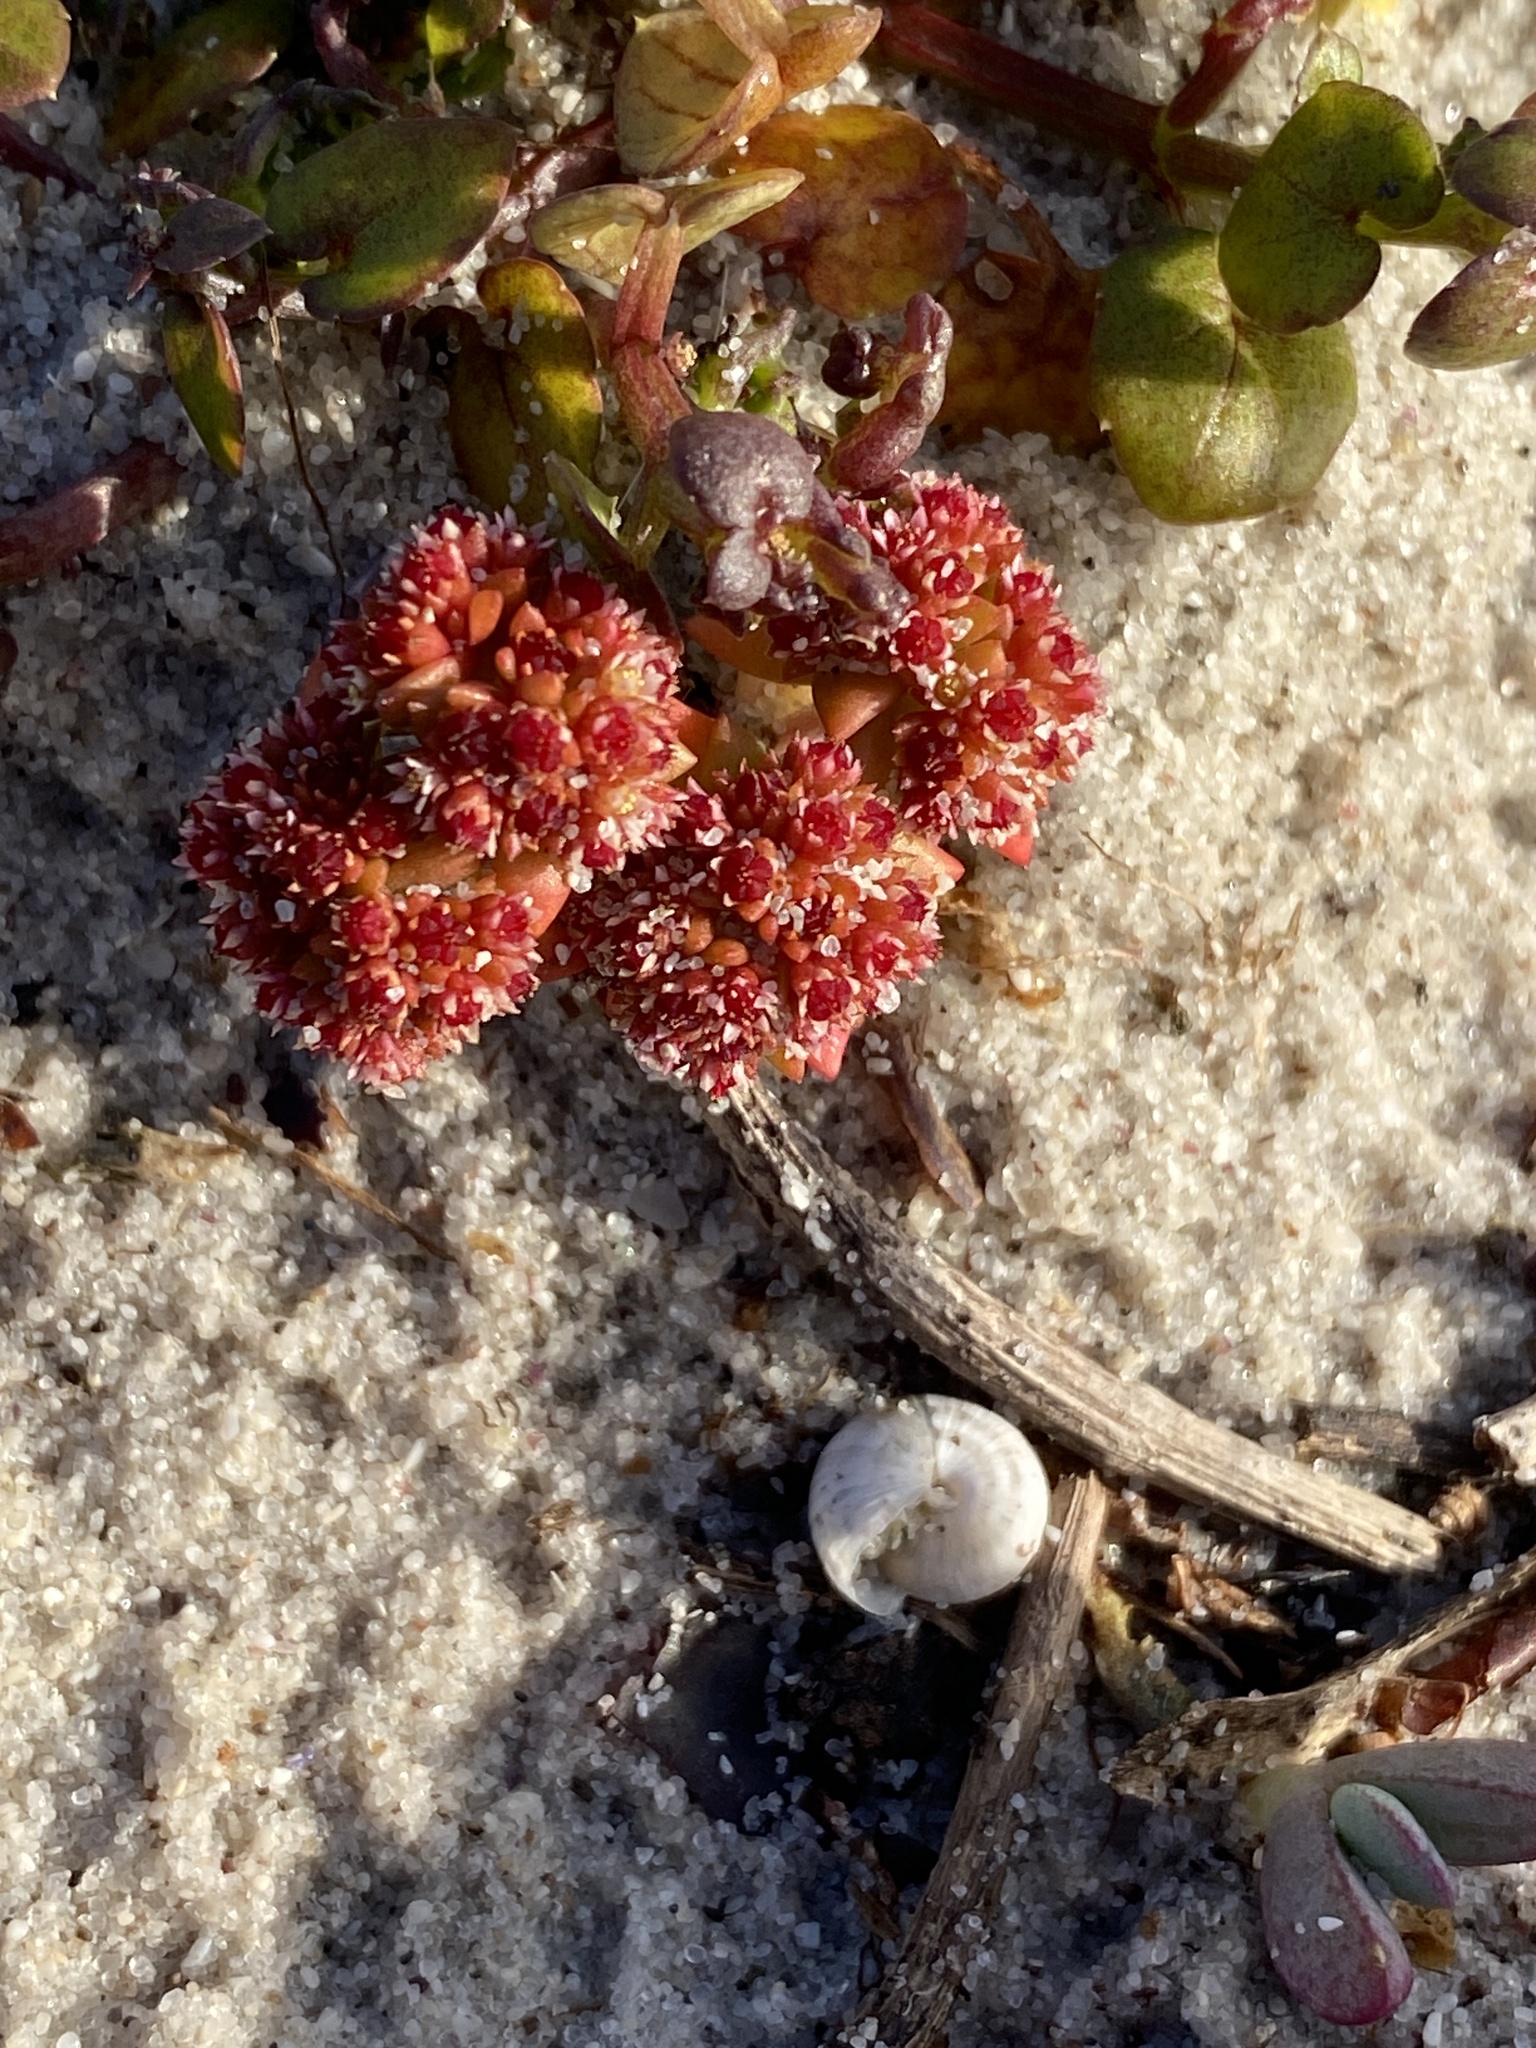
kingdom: Plantae
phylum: Tracheophyta
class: Magnoliopsida
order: Saxifragales
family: Crassulaceae
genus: Crassula
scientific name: Crassula glomerata
